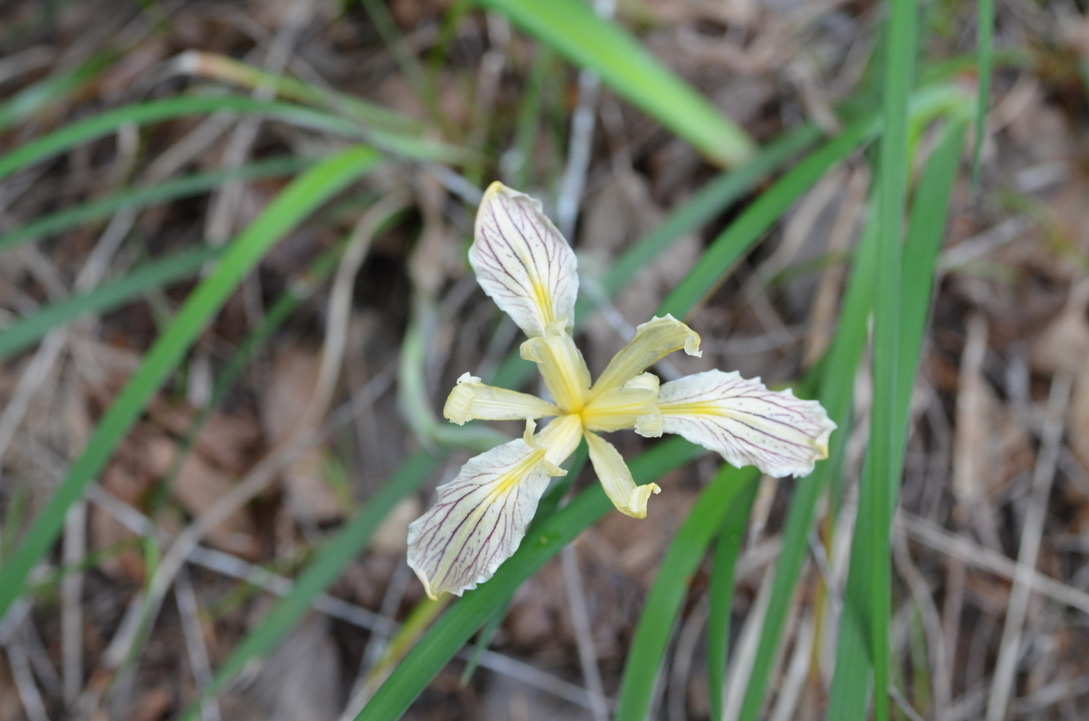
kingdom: Plantae
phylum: Tracheophyta
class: Liliopsida
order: Asparagales
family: Iridaceae
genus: Iris
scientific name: Iris purdyi
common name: Purdy's iris
